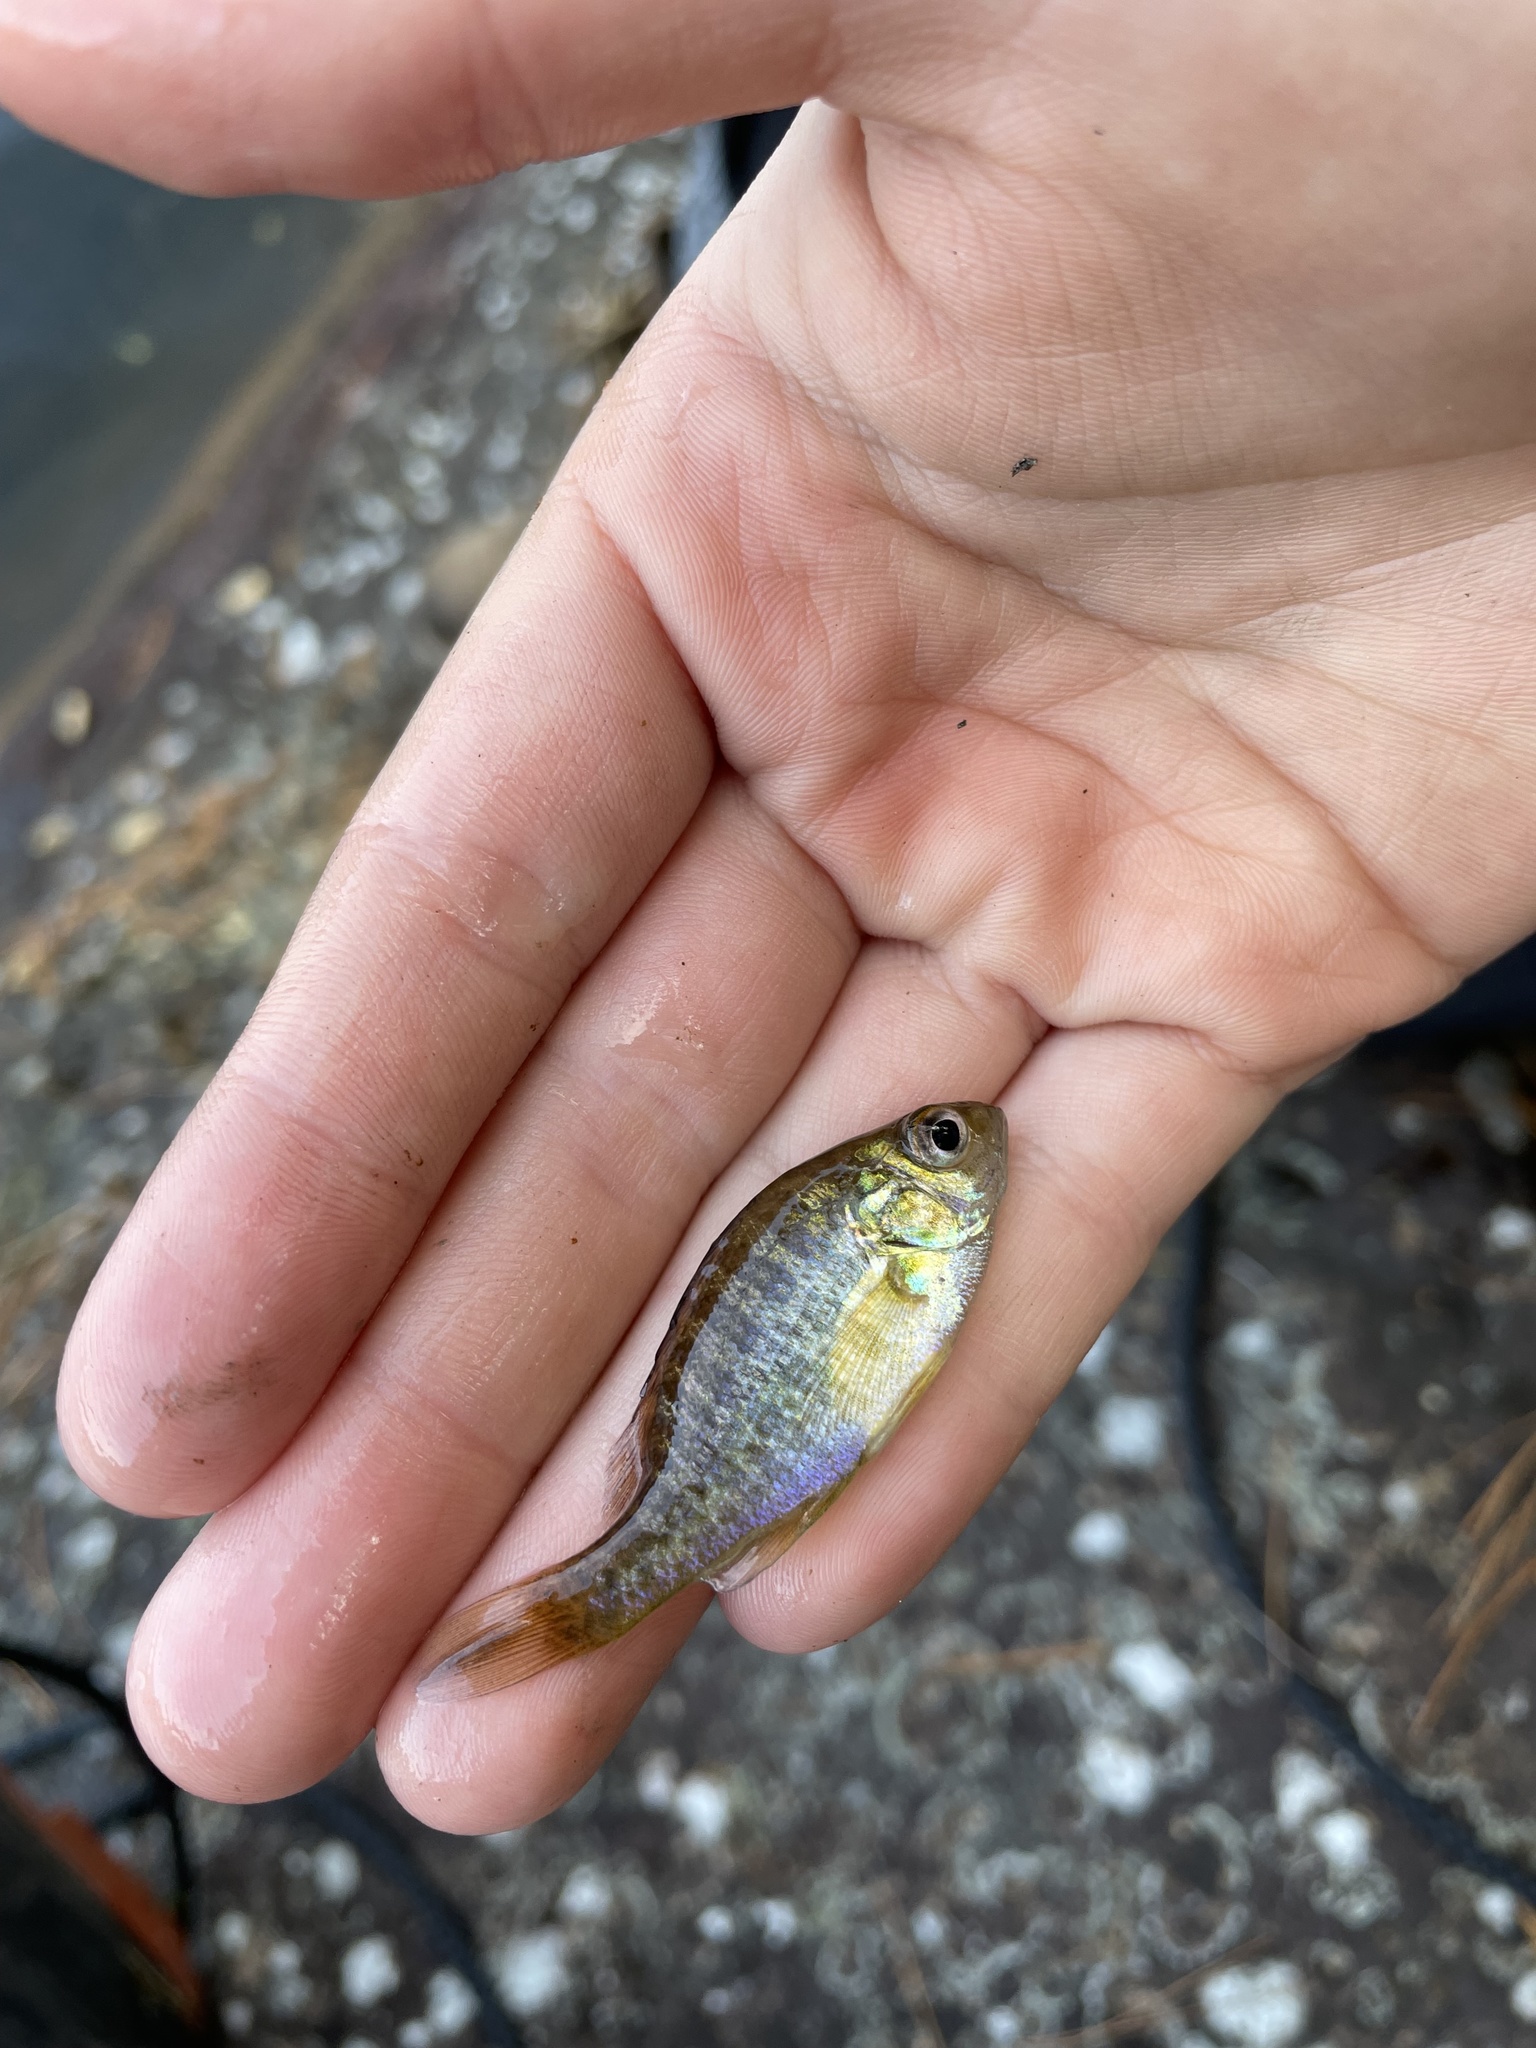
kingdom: Animalia
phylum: Chordata
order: Perciformes
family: Centrarchidae
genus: Lepomis
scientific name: Lepomis gibbosus
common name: Pumpkinseed
